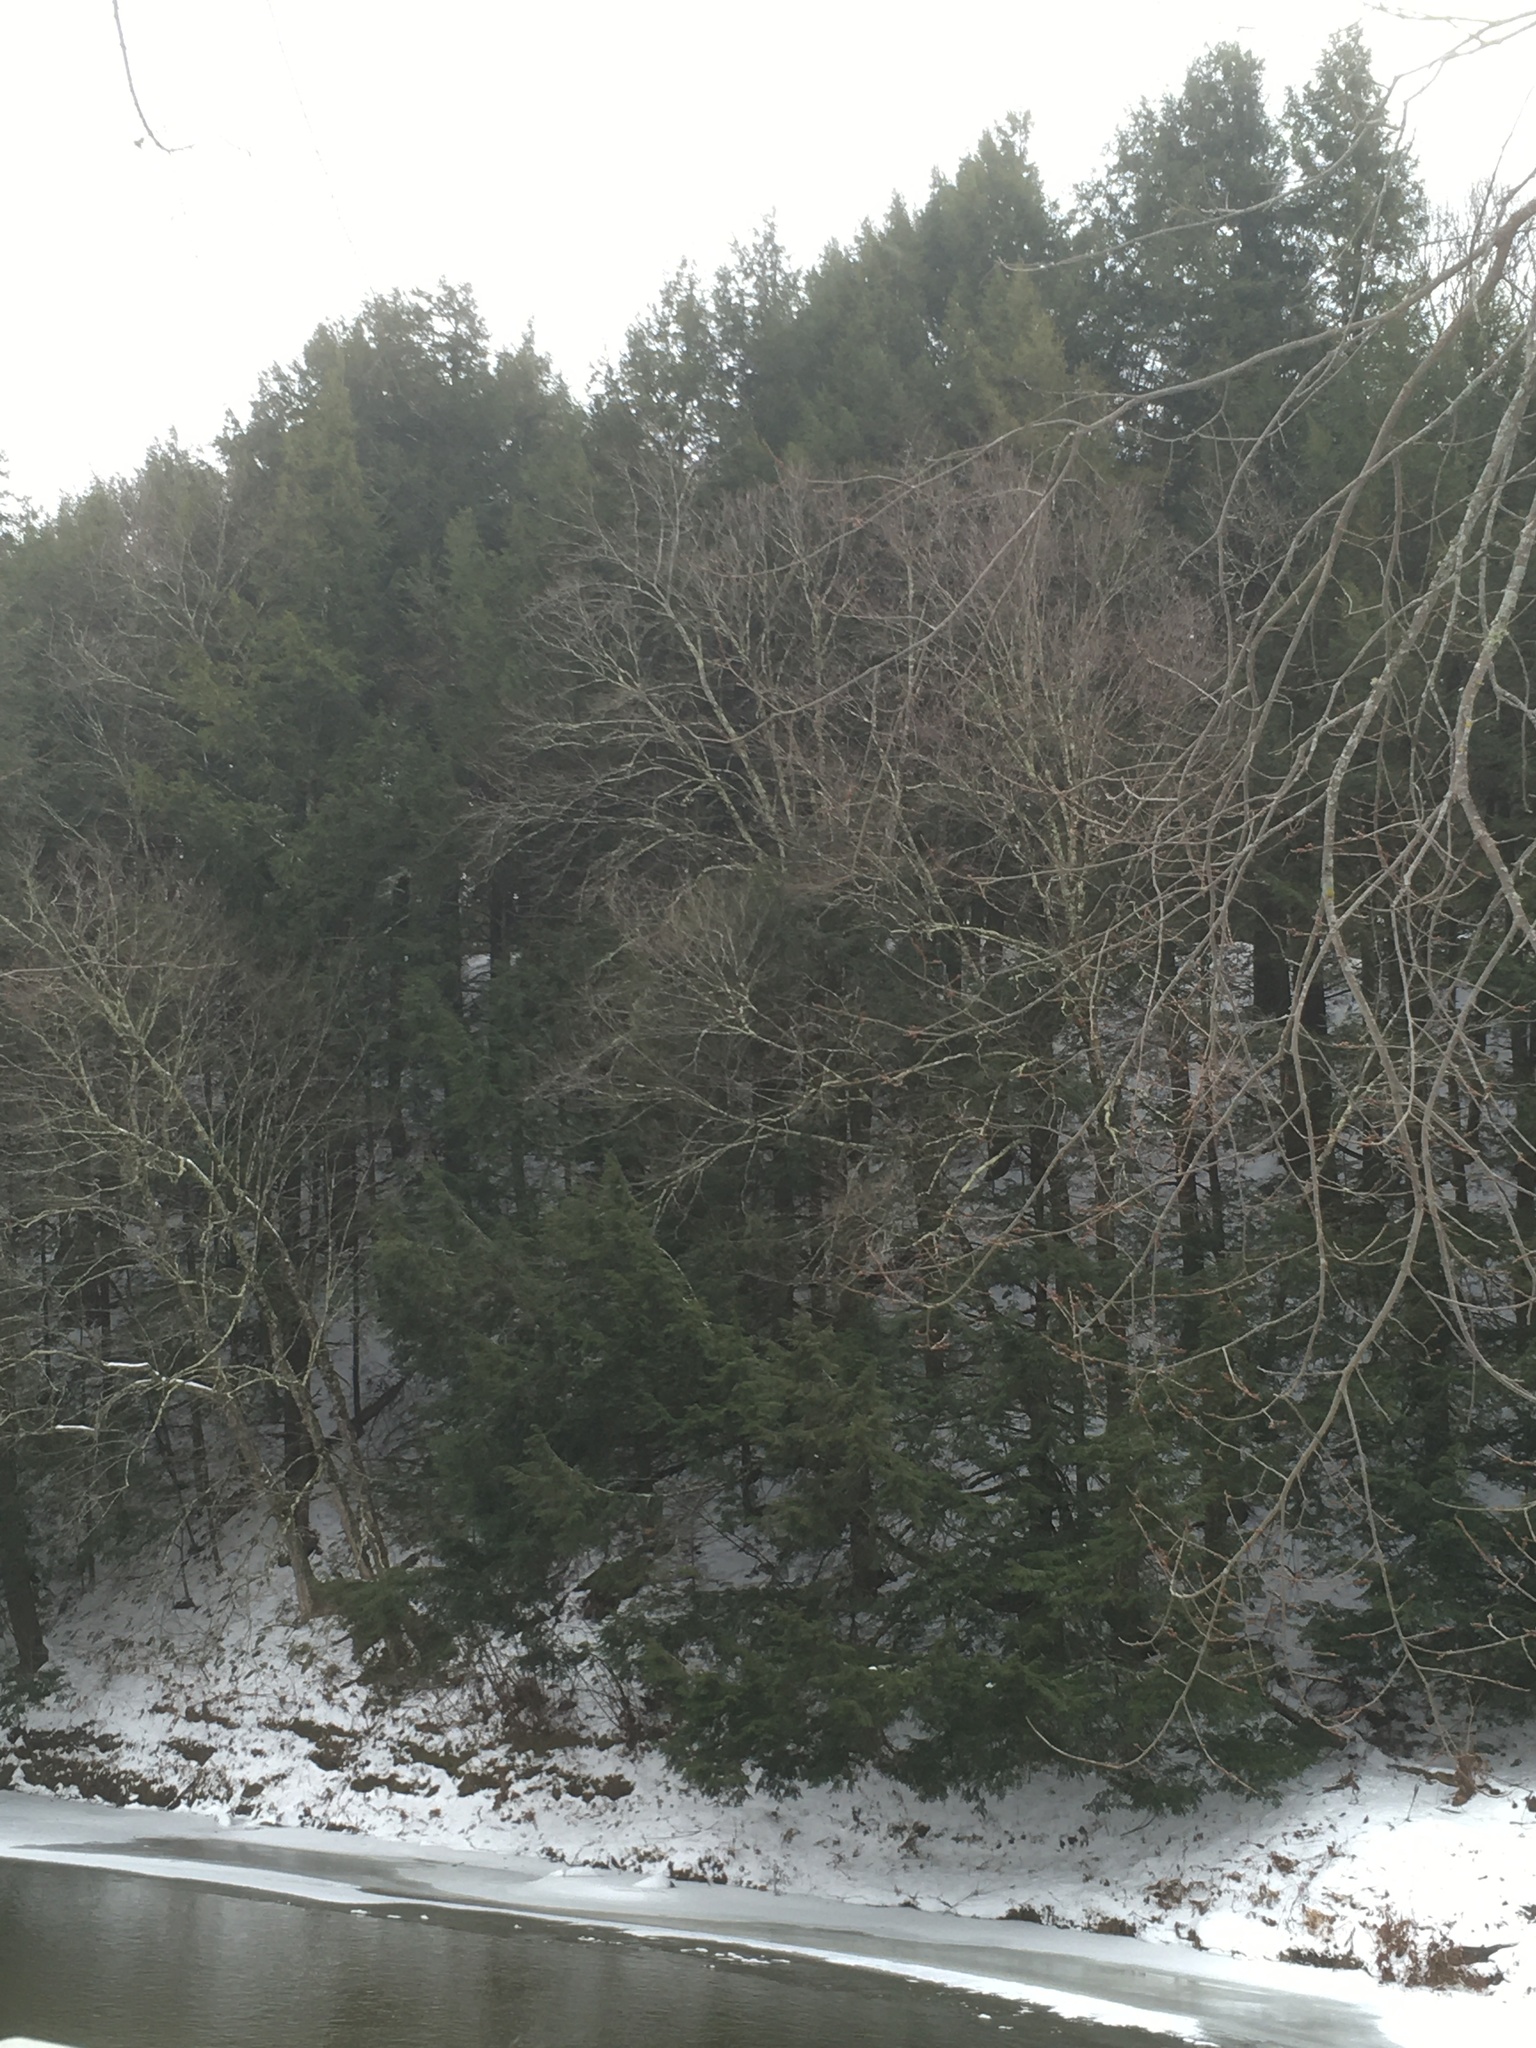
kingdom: Plantae
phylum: Tracheophyta
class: Pinopsida
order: Pinales
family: Pinaceae
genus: Tsuga
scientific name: Tsuga canadensis
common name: Eastern hemlock
